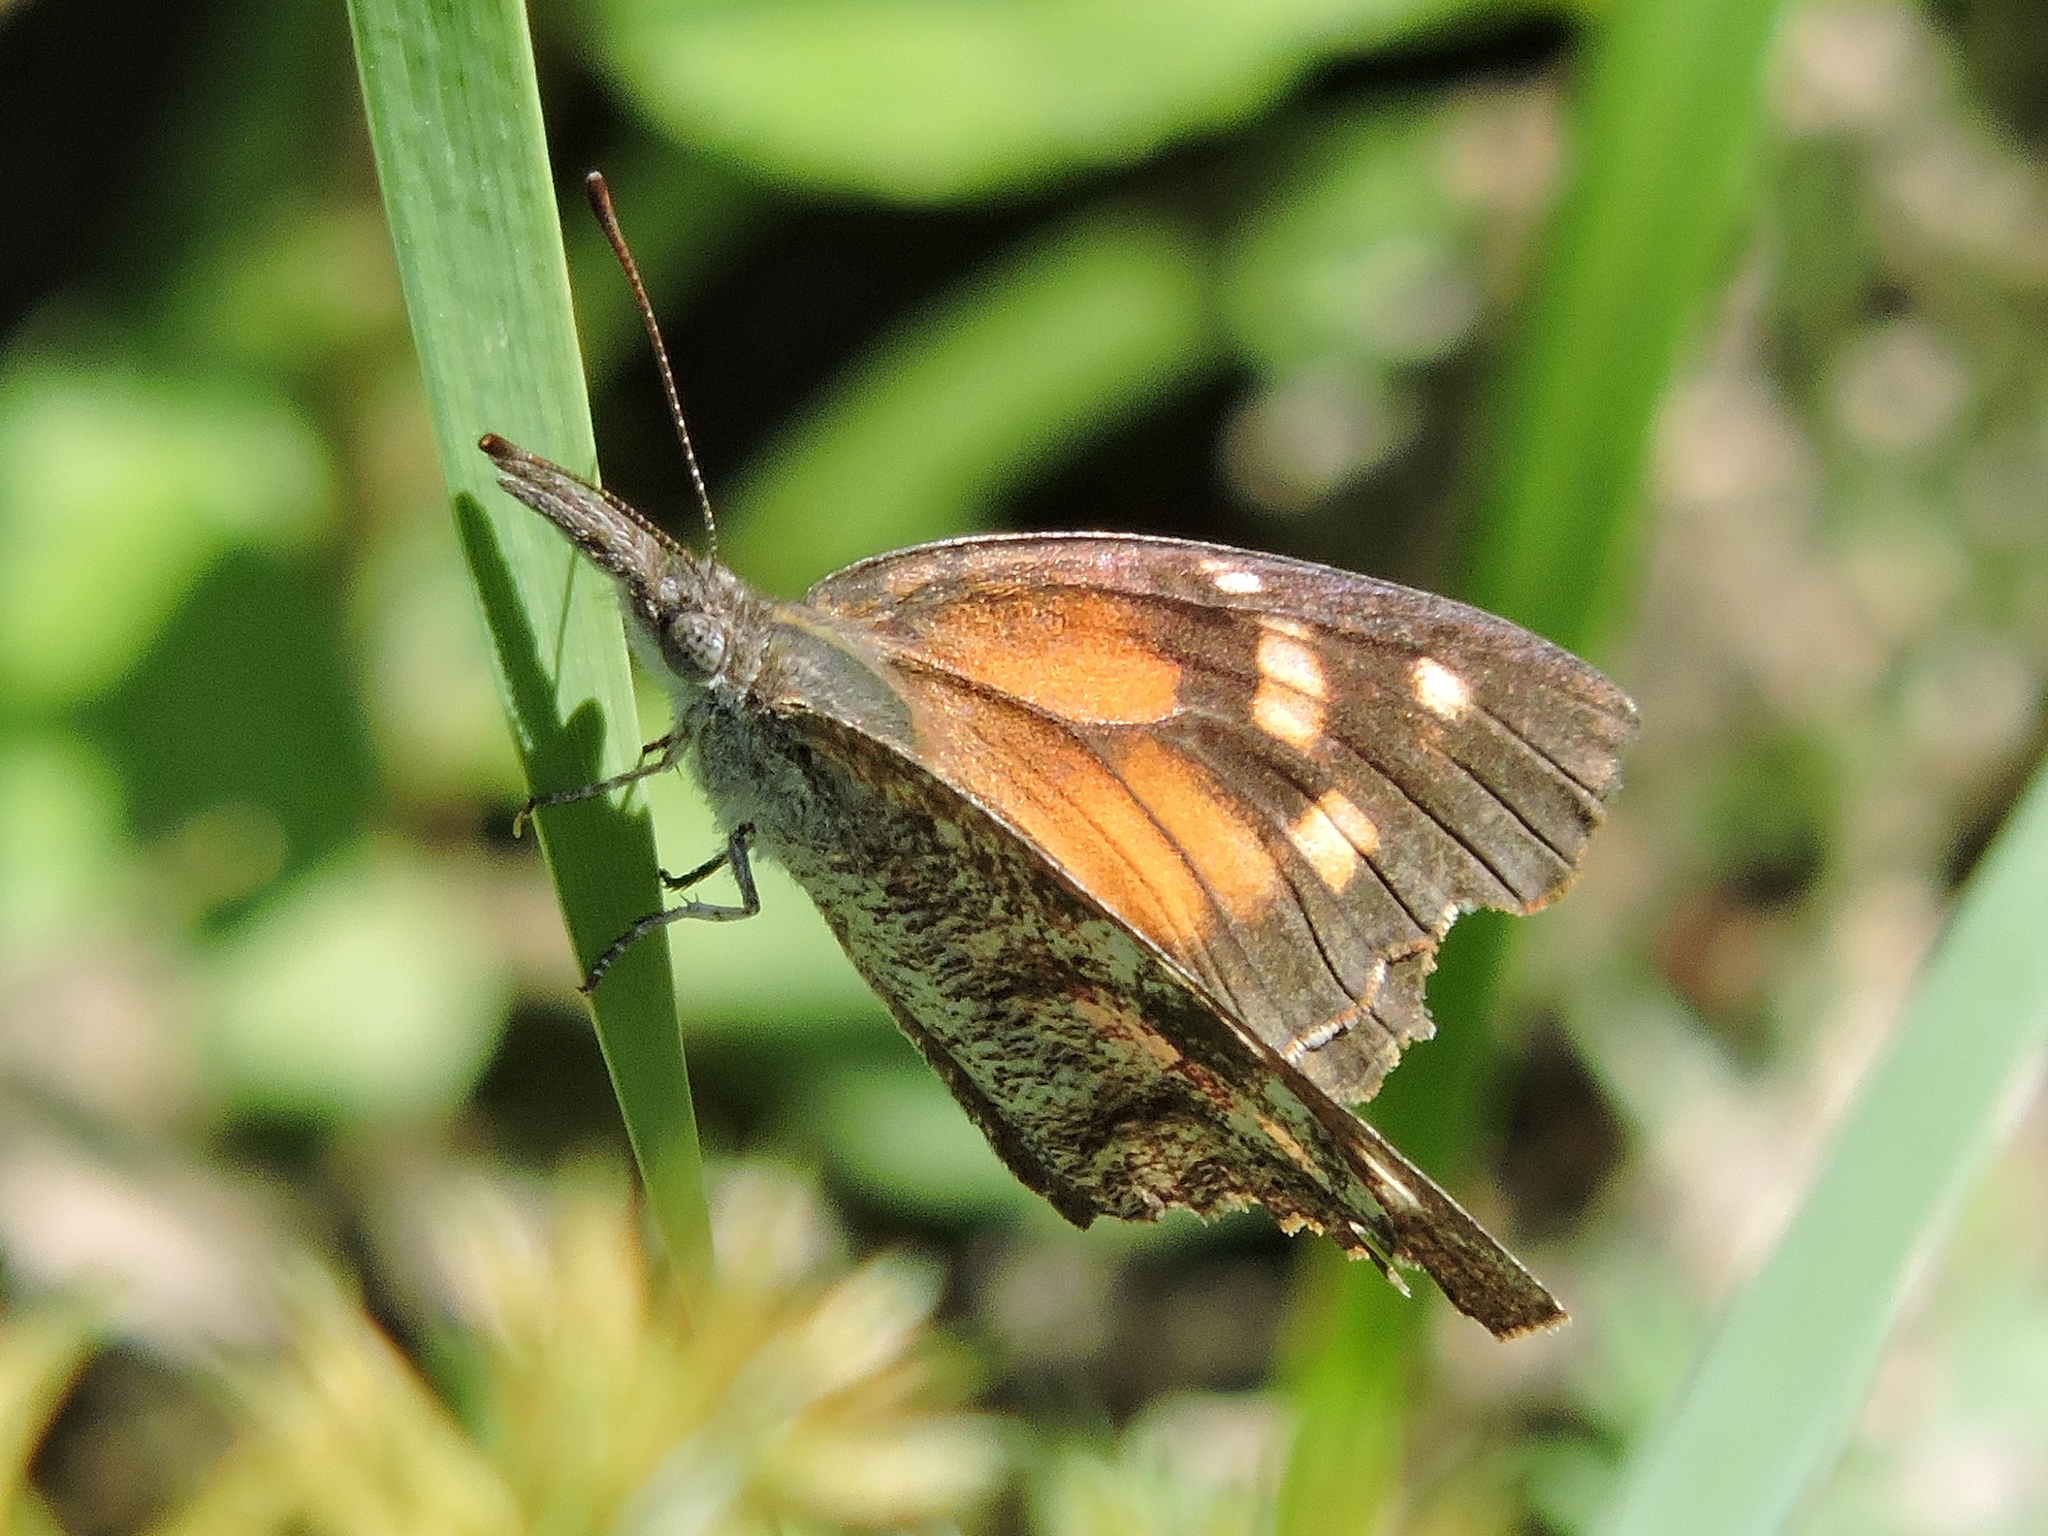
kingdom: Animalia
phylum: Arthropoda
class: Insecta
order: Lepidoptera
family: Nymphalidae
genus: Libytheana
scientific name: Libytheana carinenta
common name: American snout
